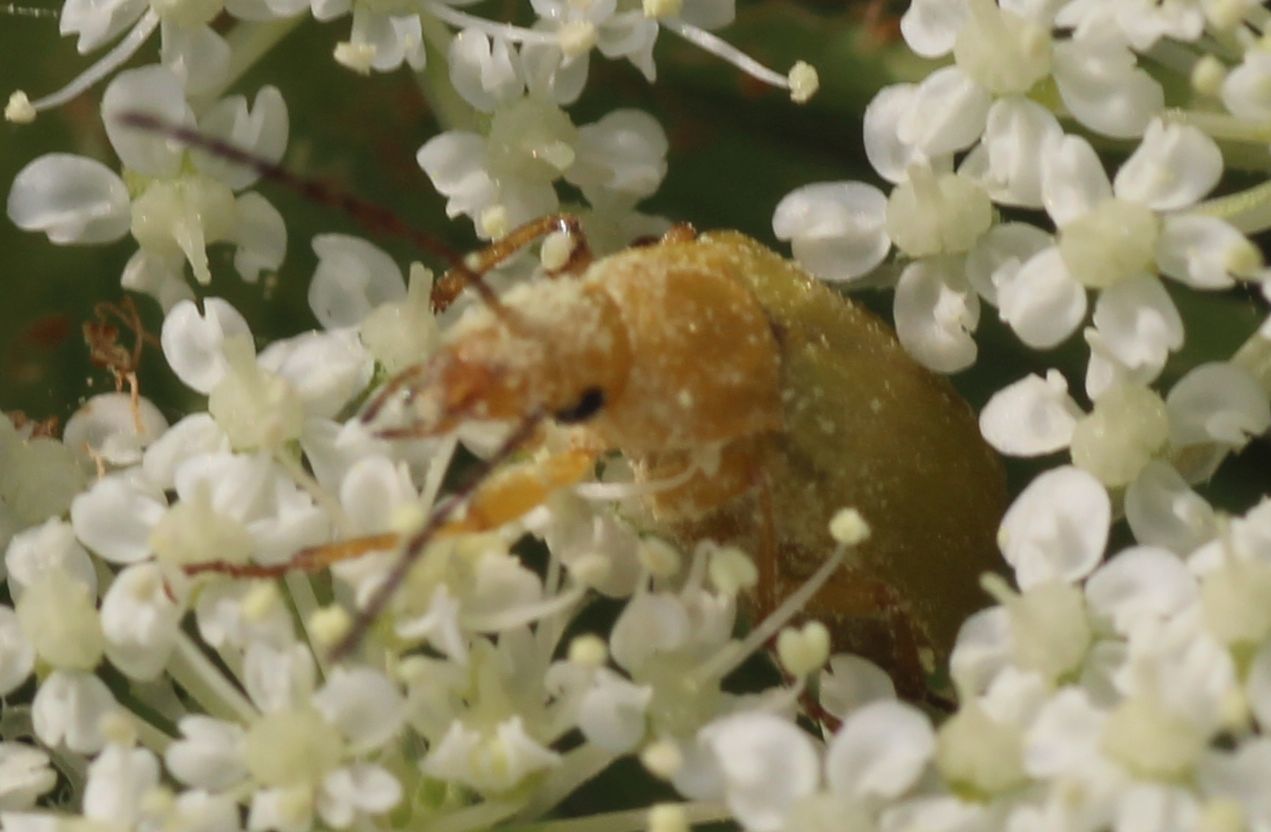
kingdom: Animalia
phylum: Arthropoda
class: Insecta
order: Coleoptera
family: Tenebrionidae
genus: Cteniopus
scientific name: Cteniopus sulphureus
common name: Sulphur beetle
